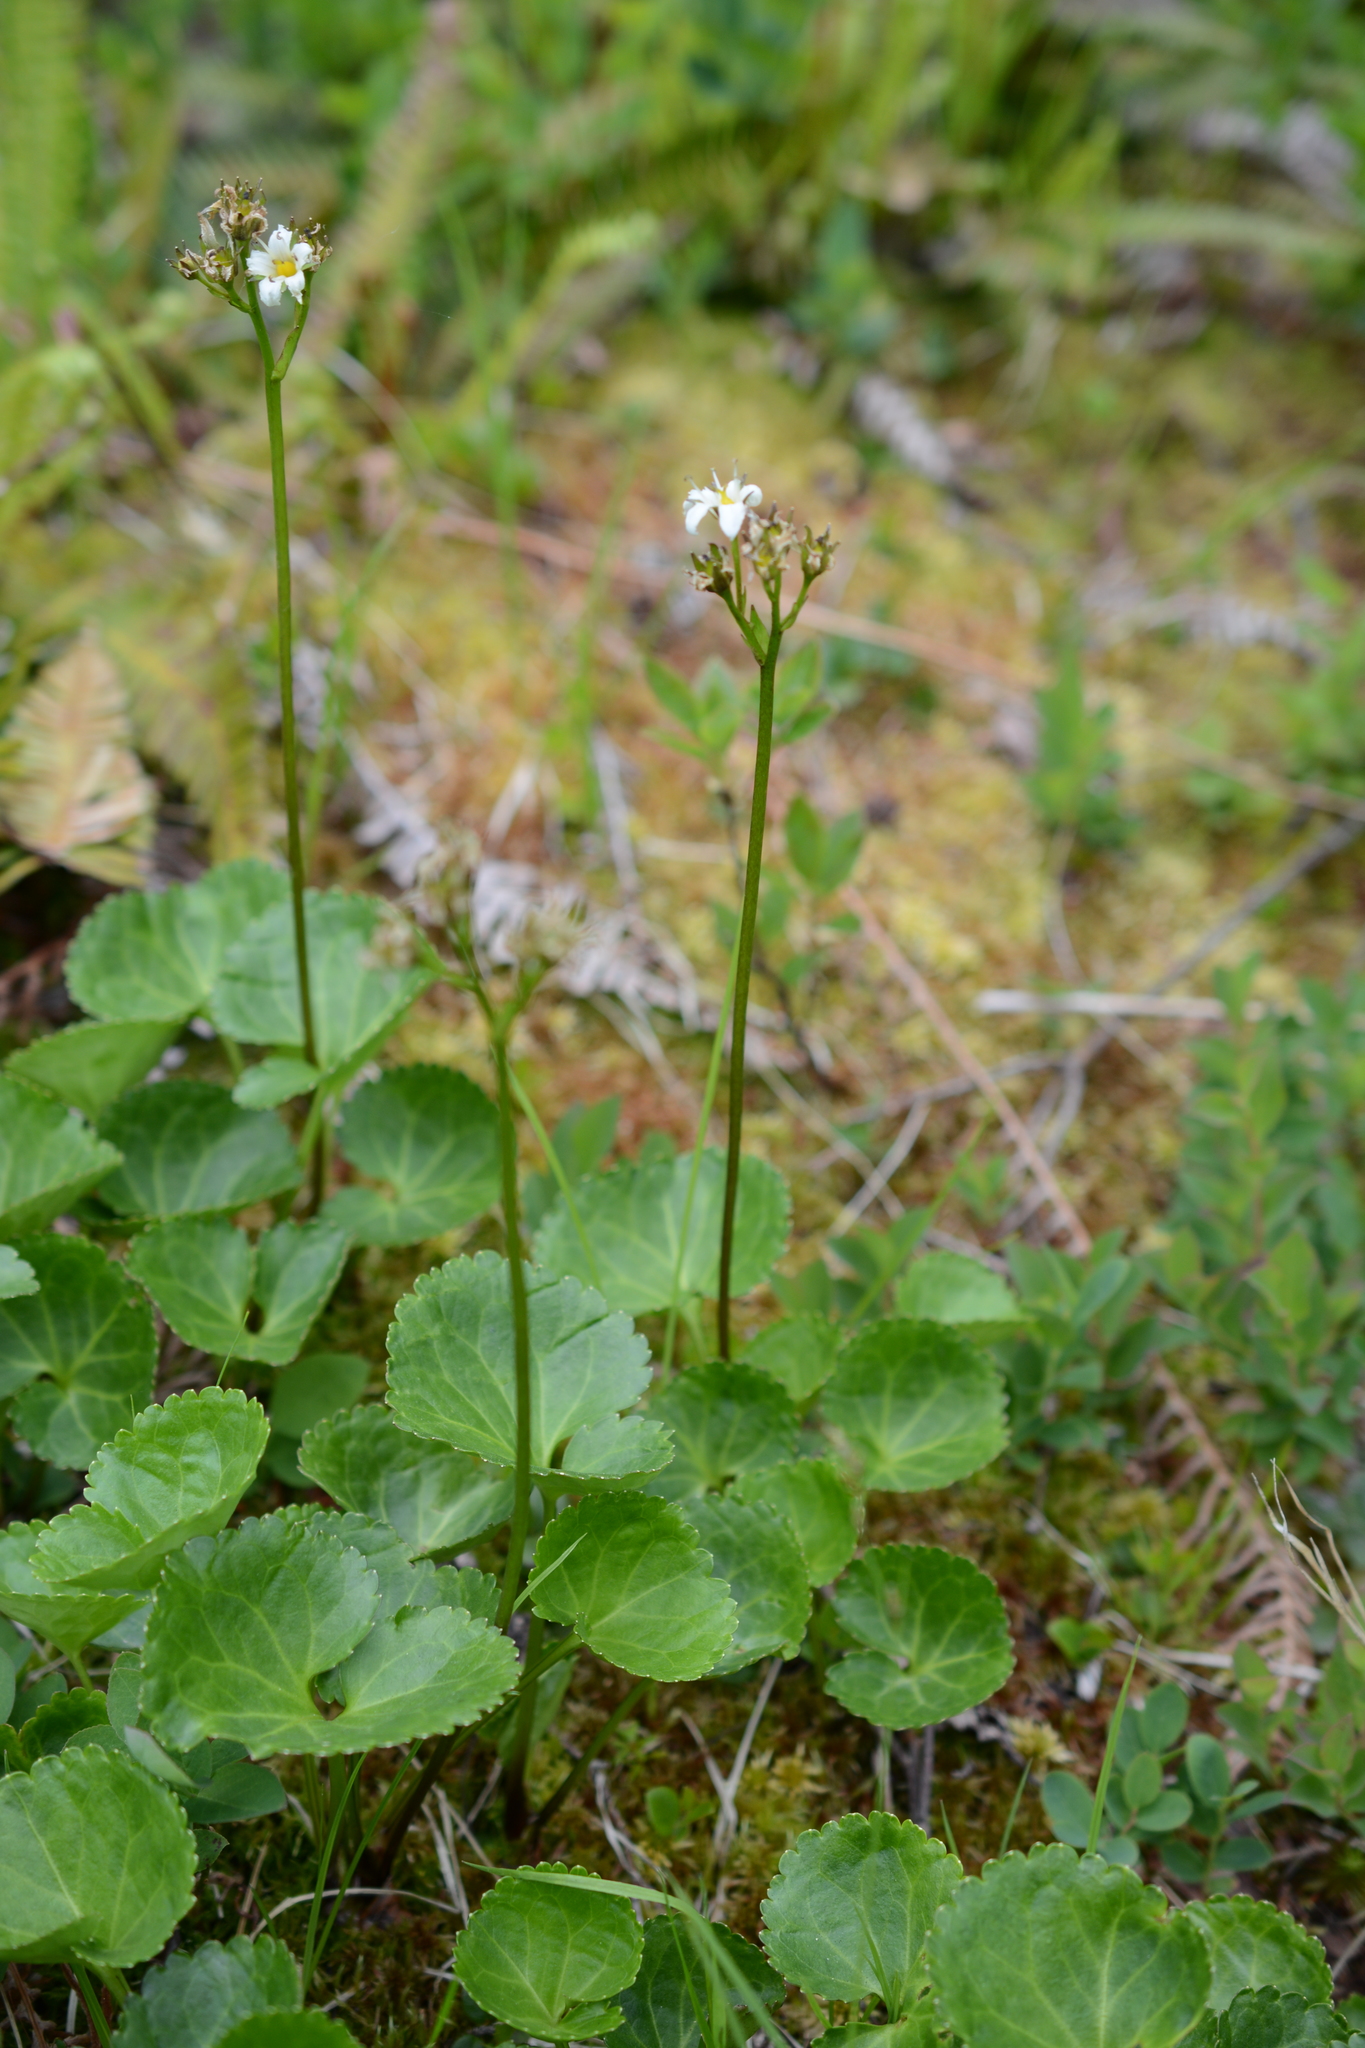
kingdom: Plantae
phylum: Tracheophyta
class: Magnoliopsida
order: Asterales
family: Menyanthaceae
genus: Nephrophyllidium
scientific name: Nephrophyllidium crista-galli
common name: Deer-cabbage
